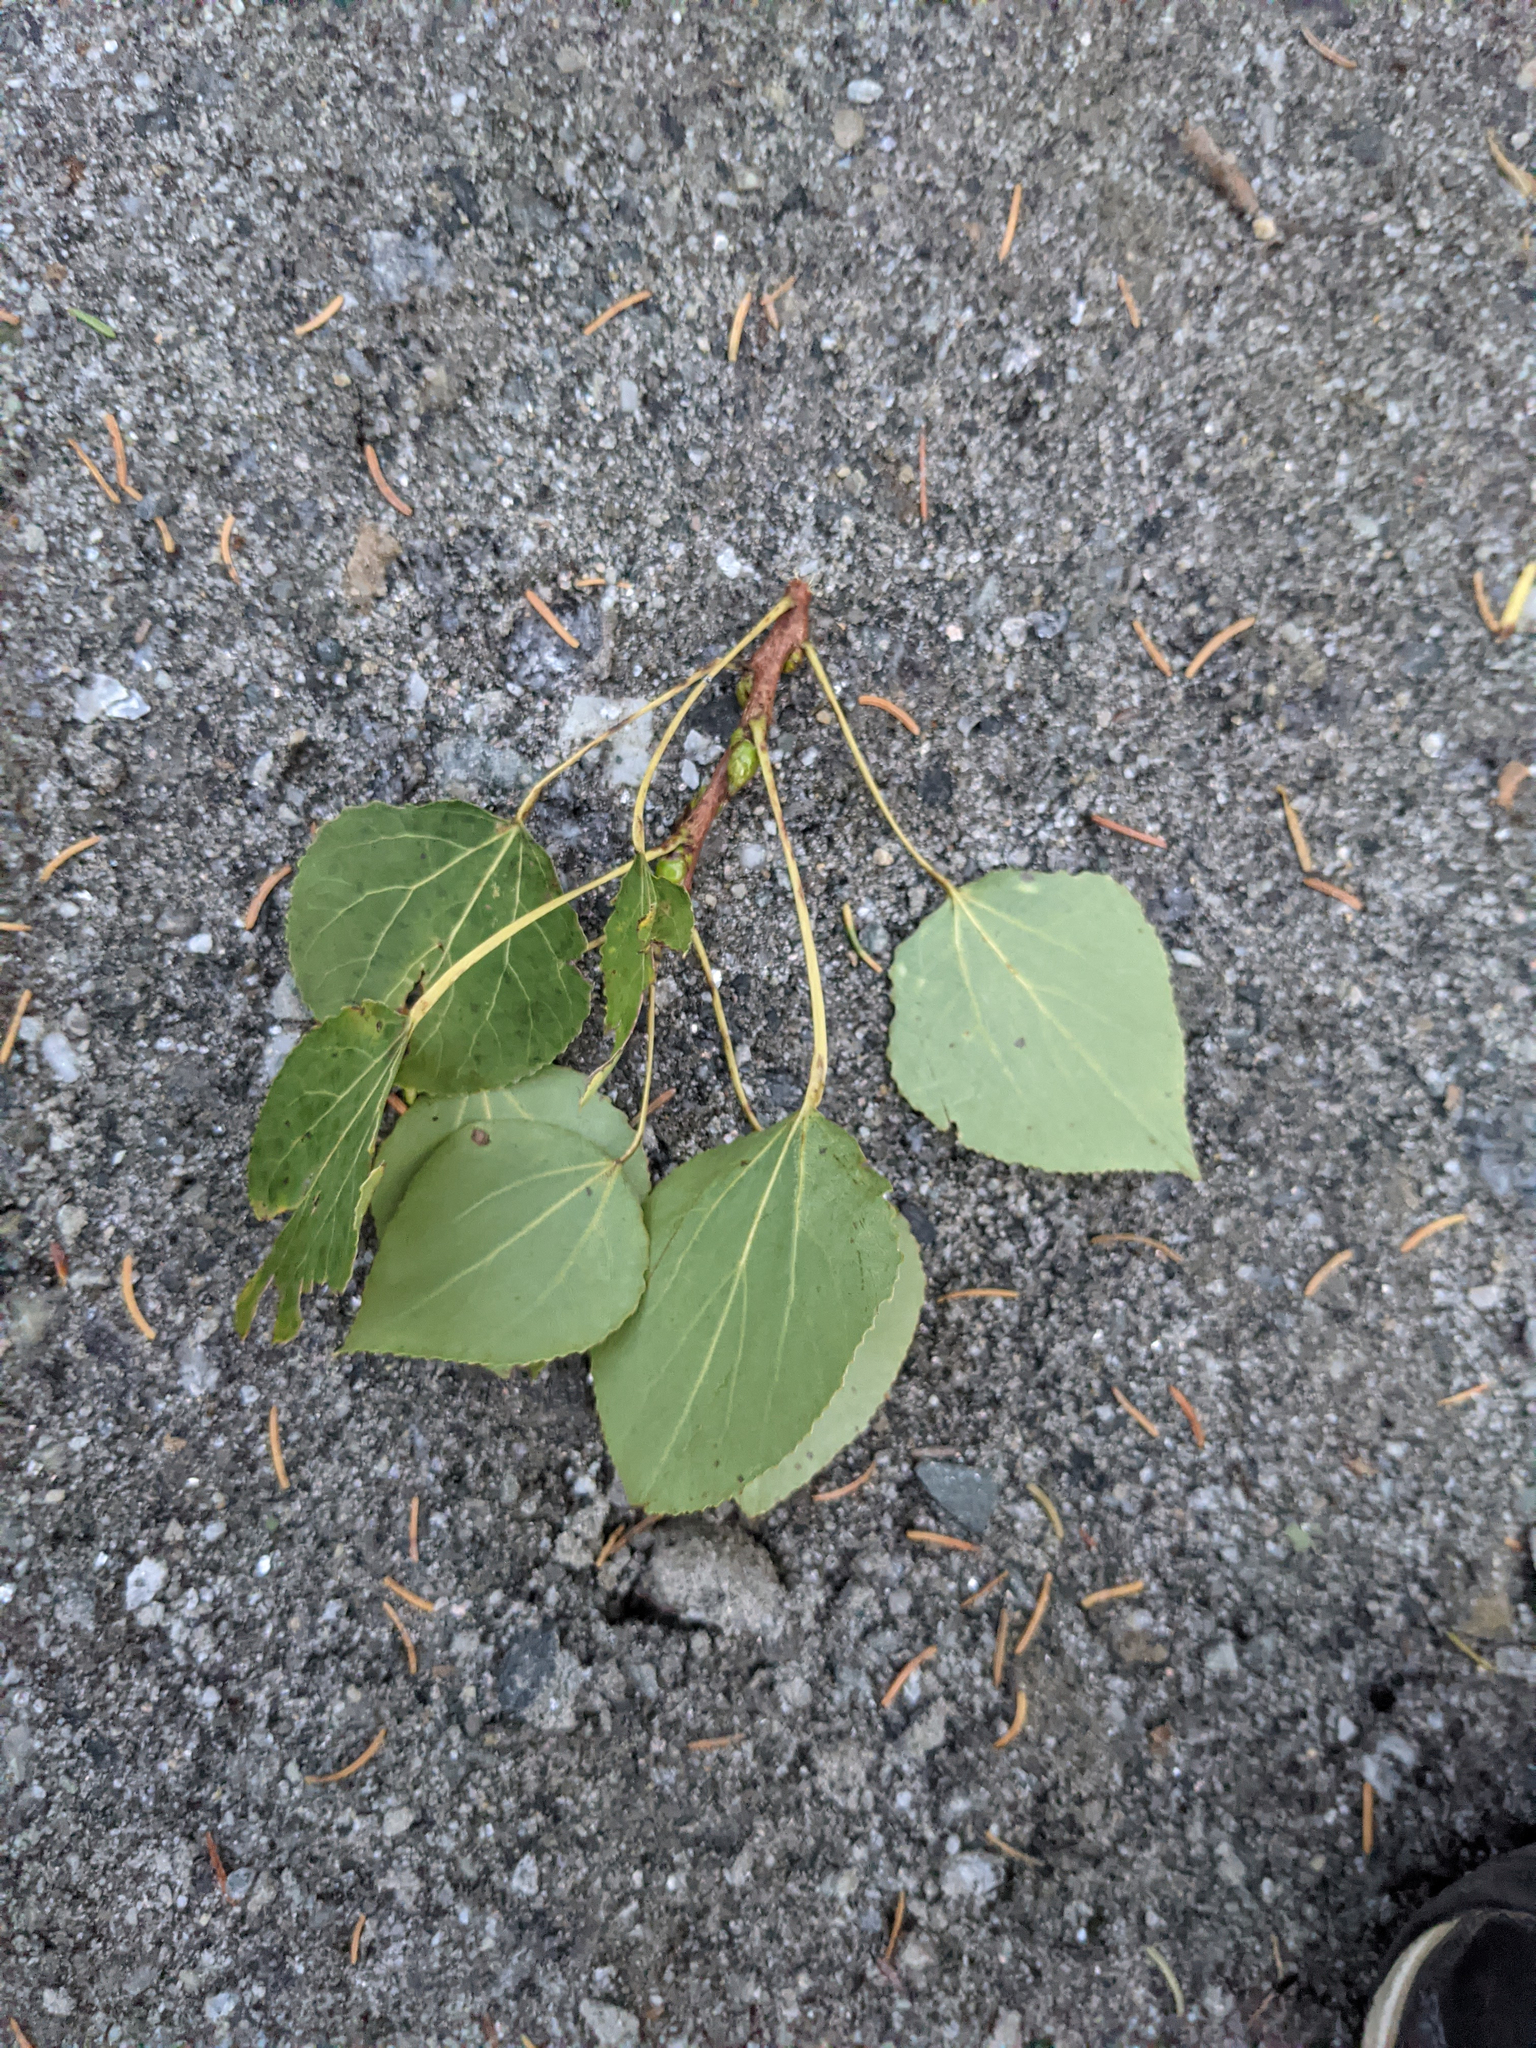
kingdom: Plantae
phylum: Tracheophyta
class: Magnoliopsida
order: Malpighiales
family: Salicaceae
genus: Populus
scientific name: Populus tremuloides
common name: Quaking aspen
